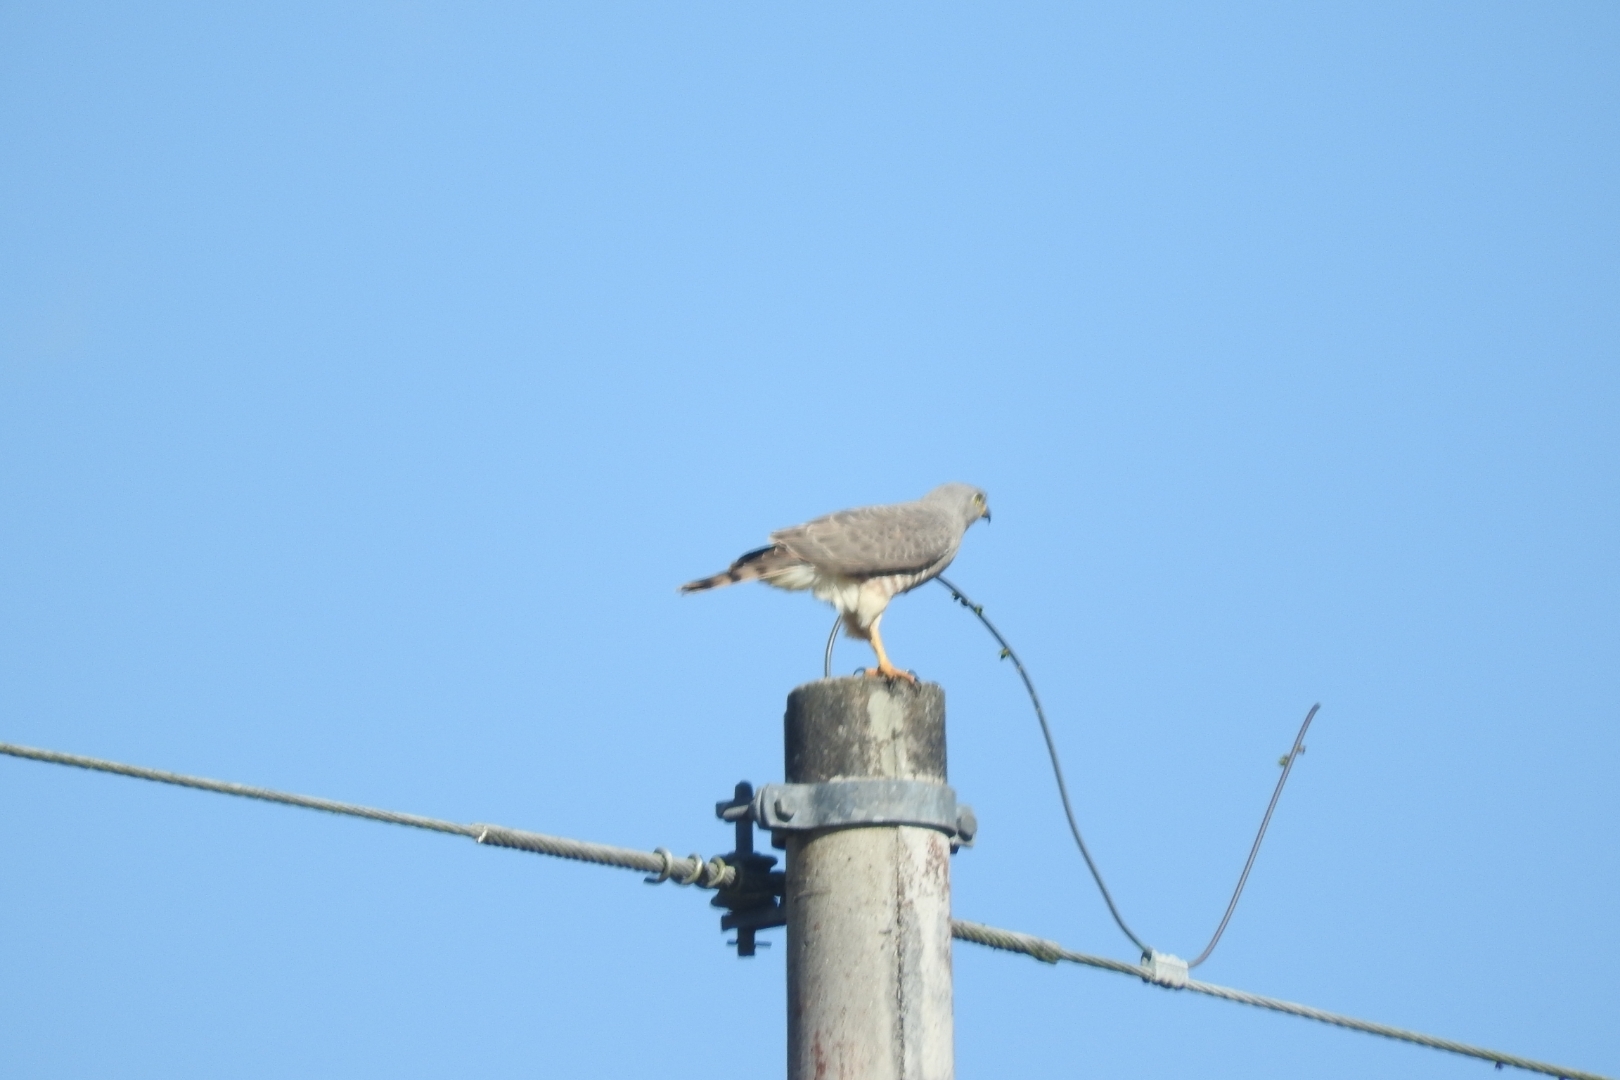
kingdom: Animalia
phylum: Chordata
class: Aves
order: Accipitriformes
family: Accipitridae
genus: Rupornis
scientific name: Rupornis magnirostris
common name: Roadside hawk
